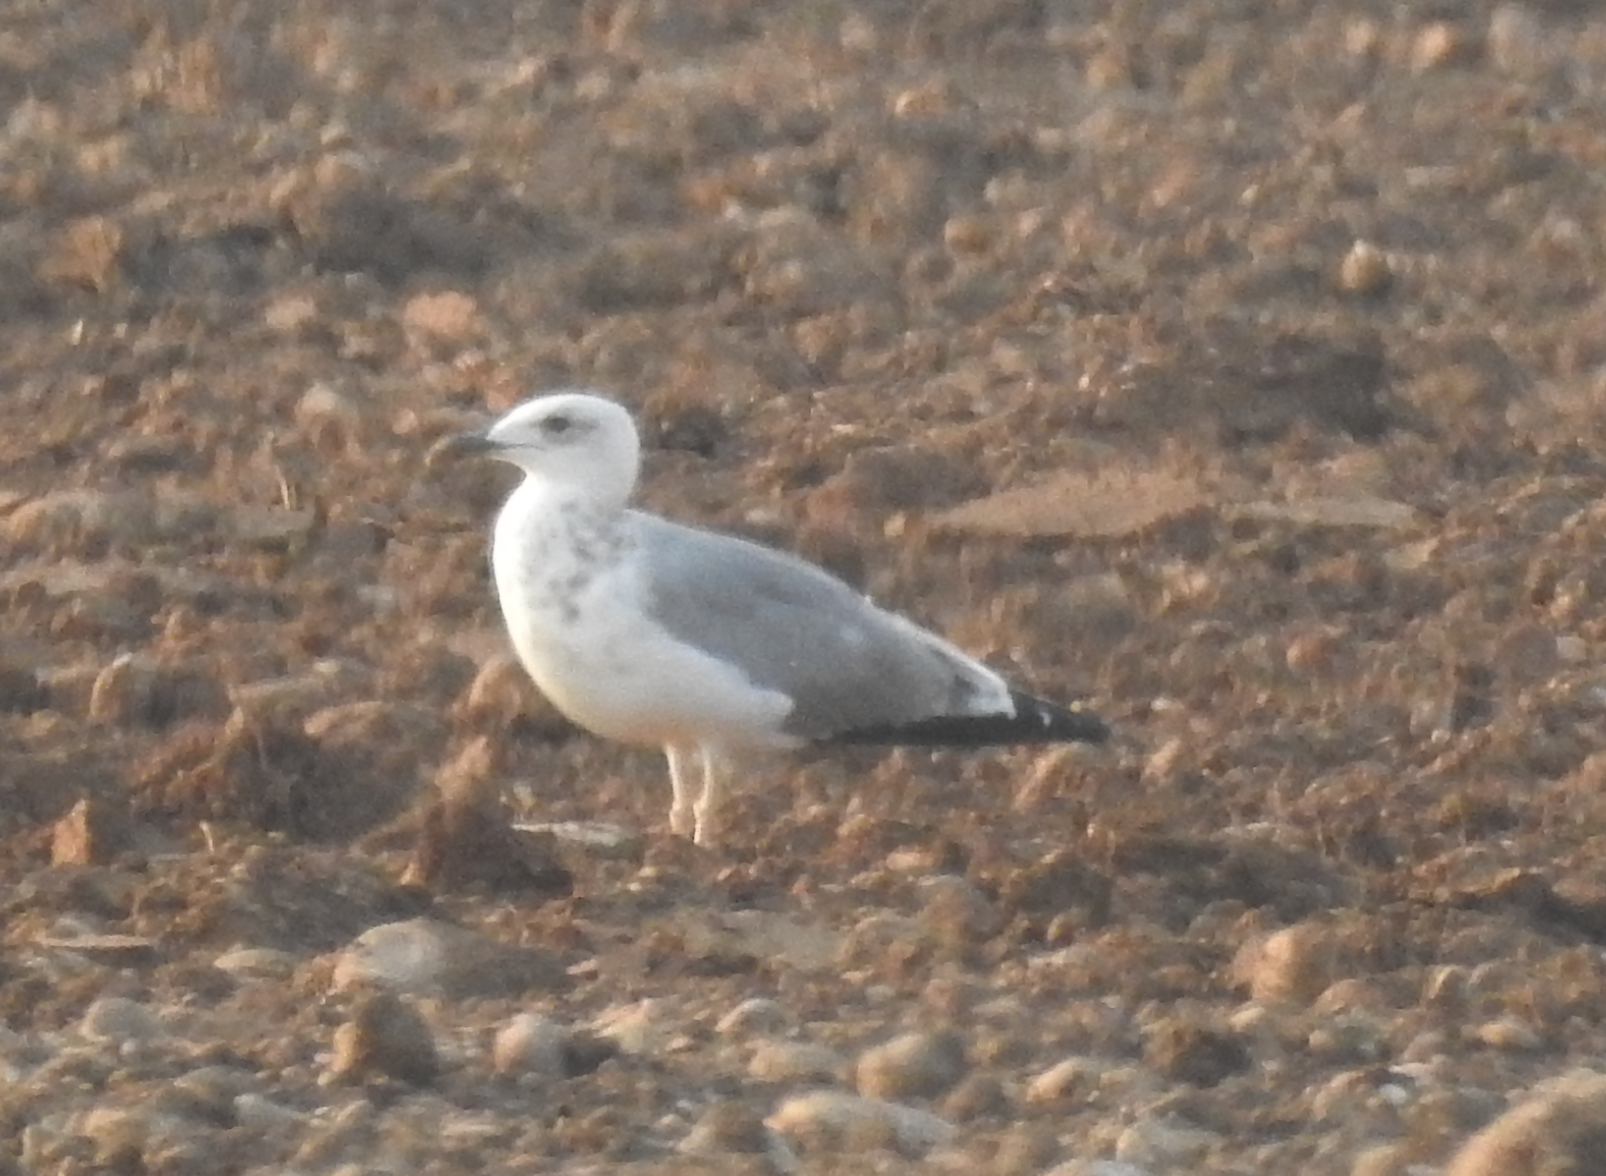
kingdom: Animalia
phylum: Chordata
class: Aves
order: Charadriiformes
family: Laridae
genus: Larus
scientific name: Larus michahellis
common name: Yellow-legged gull
